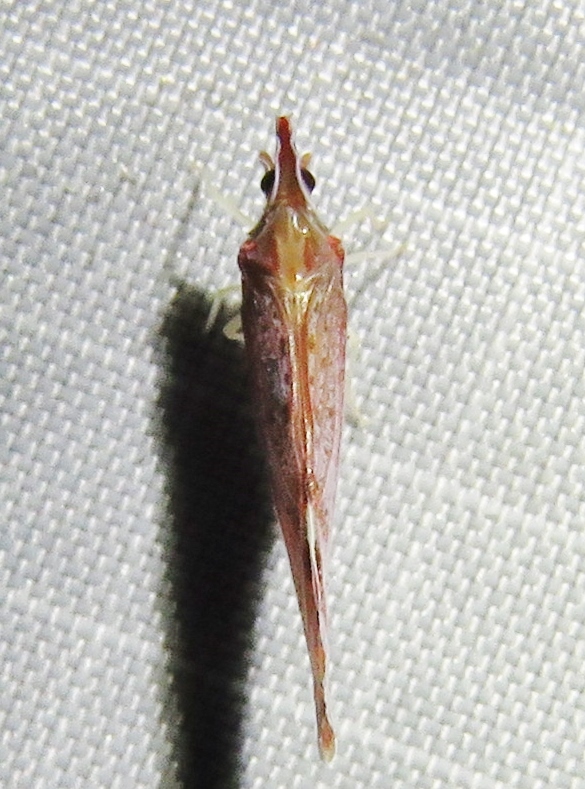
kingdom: Animalia
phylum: Arthropoda
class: Insecta
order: Hemiptera
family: Derbidae
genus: Apache
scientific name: Apache degeeri
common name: Red-fanned planthopper
